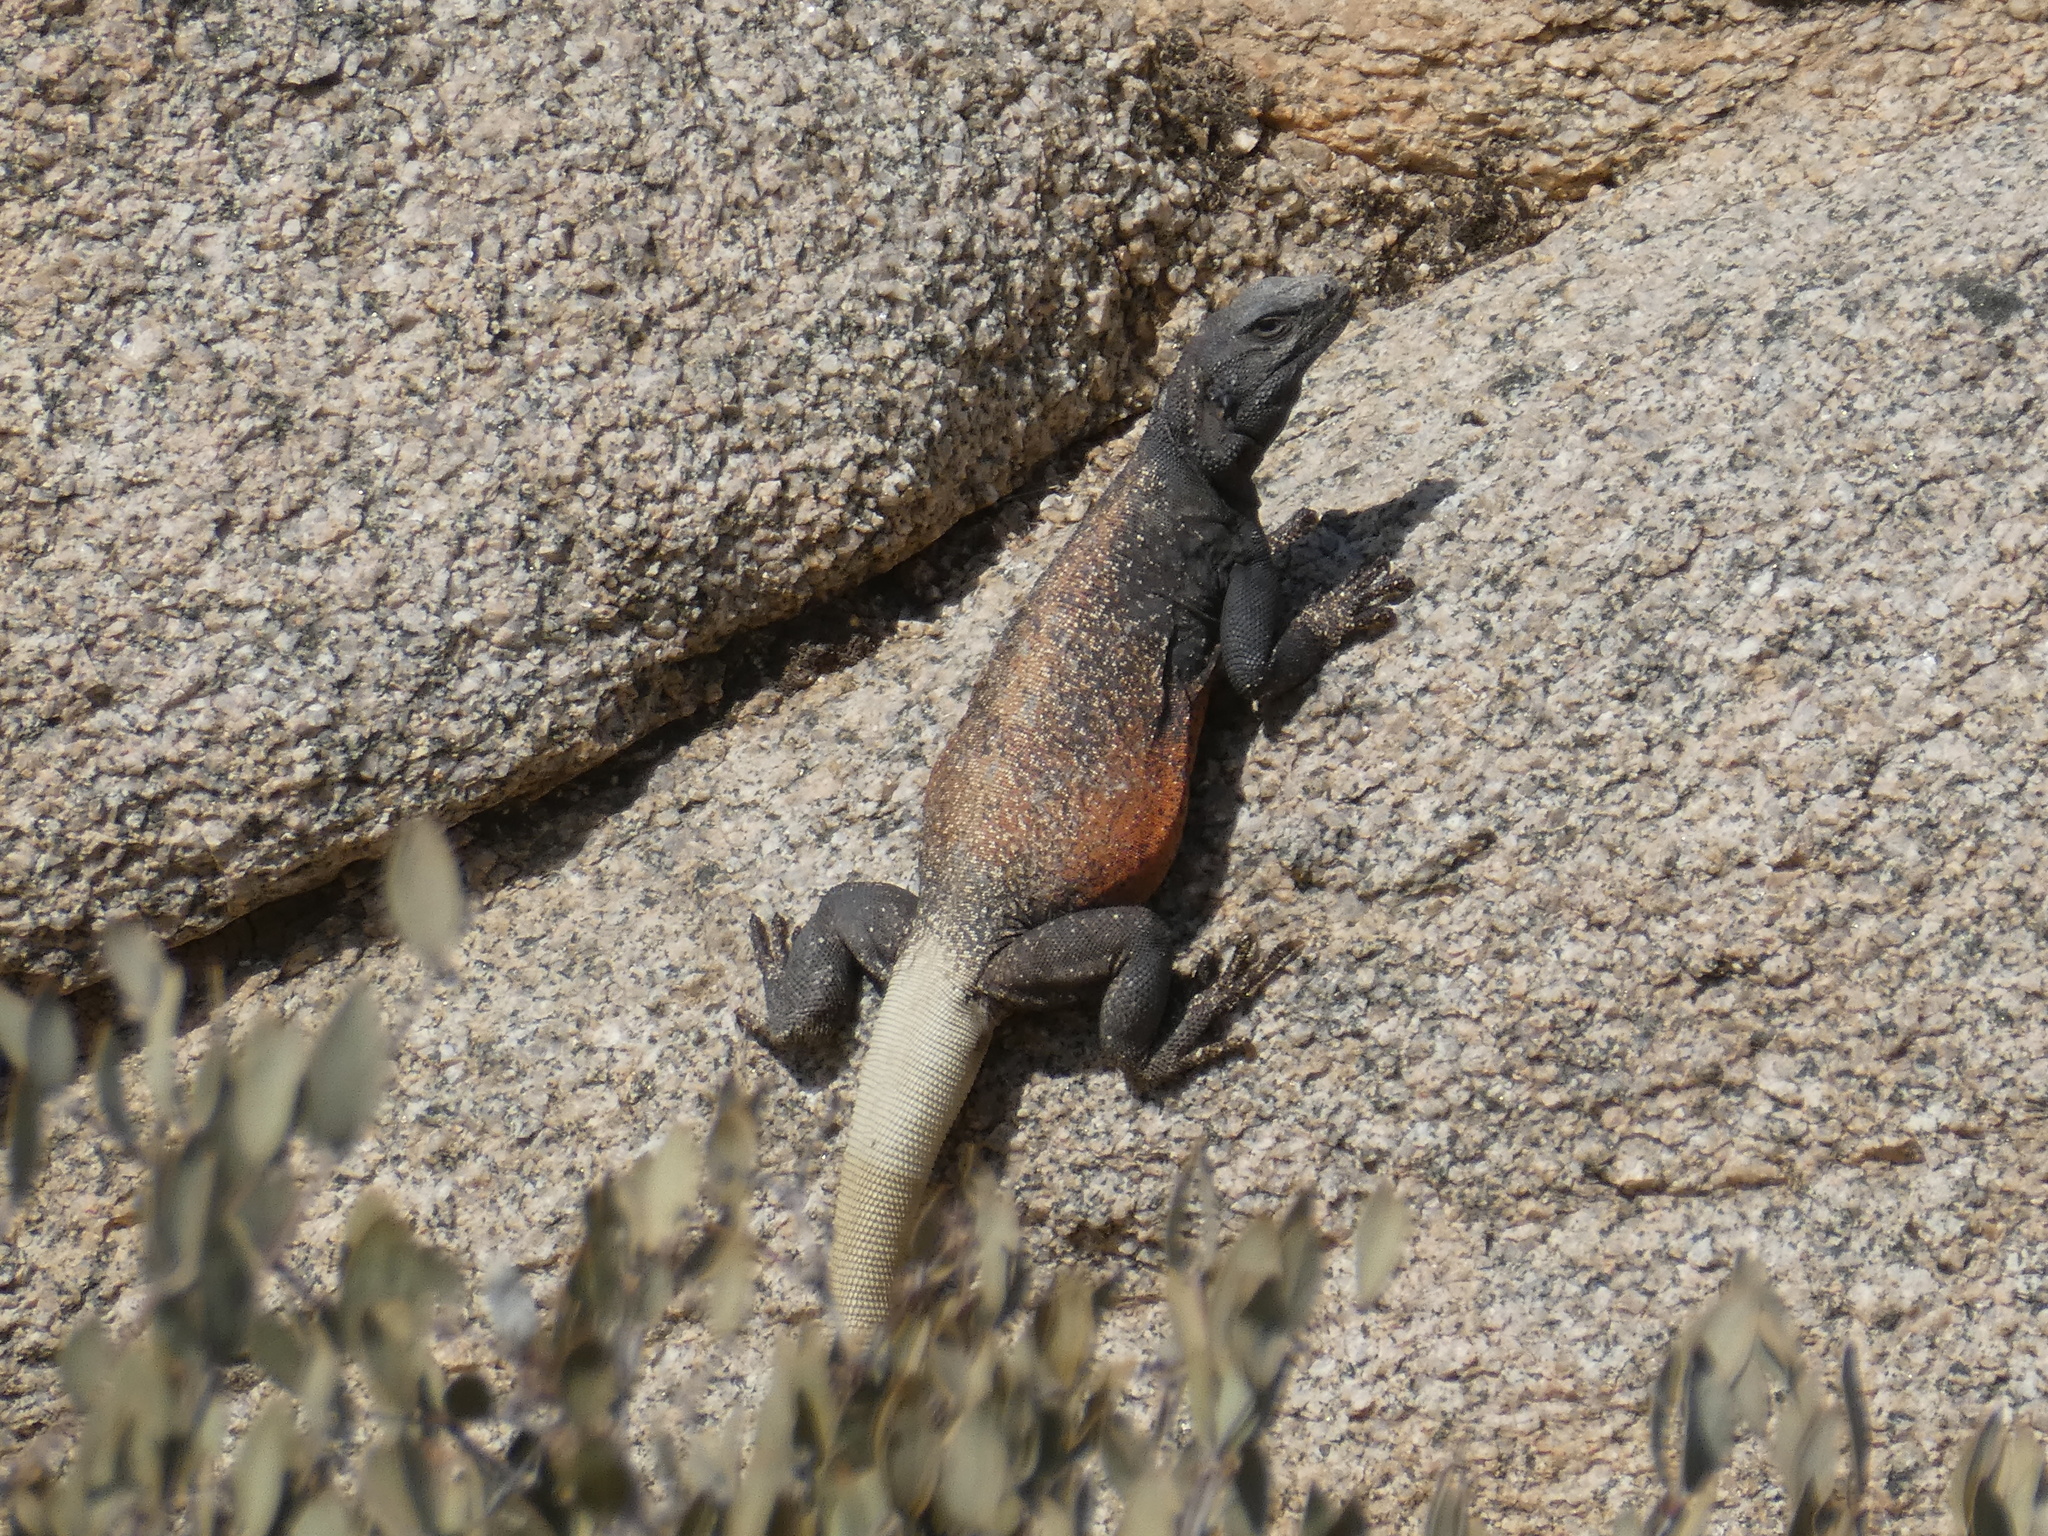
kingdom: Animalia
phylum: Chordata
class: Squamata
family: Iguanidae
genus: Sauromalus
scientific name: Sauromalus ater
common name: Northern chuckwalla
